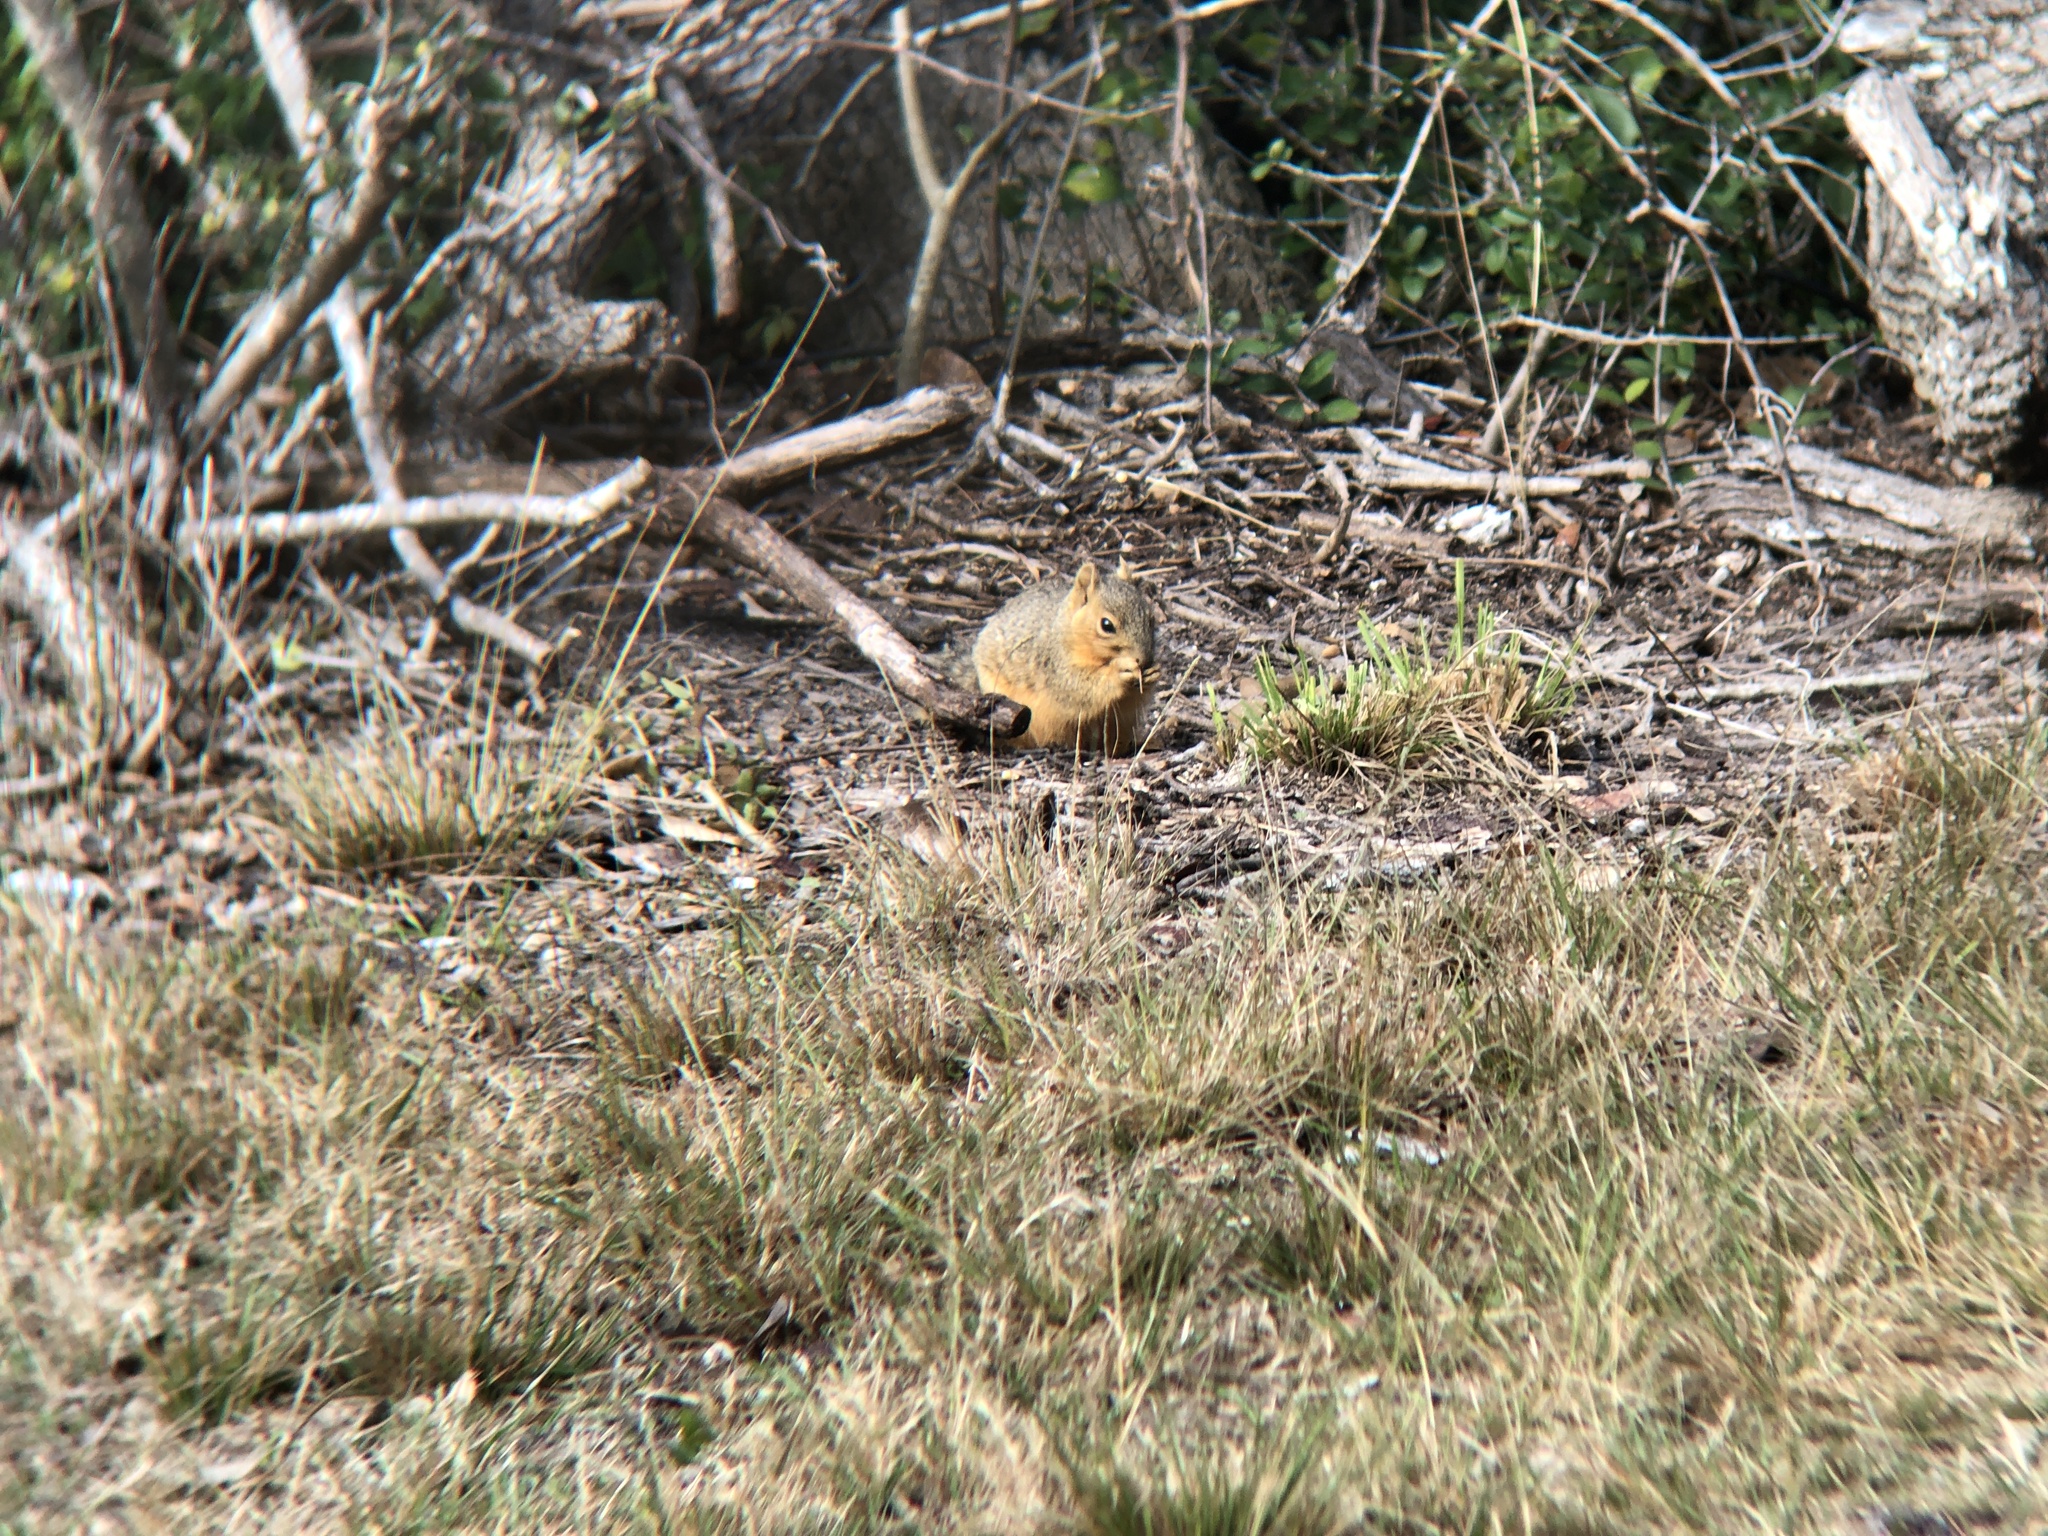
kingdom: Animalia
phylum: Chordata
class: Mammalia
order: Rodentia
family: Sciuridae
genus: Sciurus
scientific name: Sciurus niger
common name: Fox squirrel
